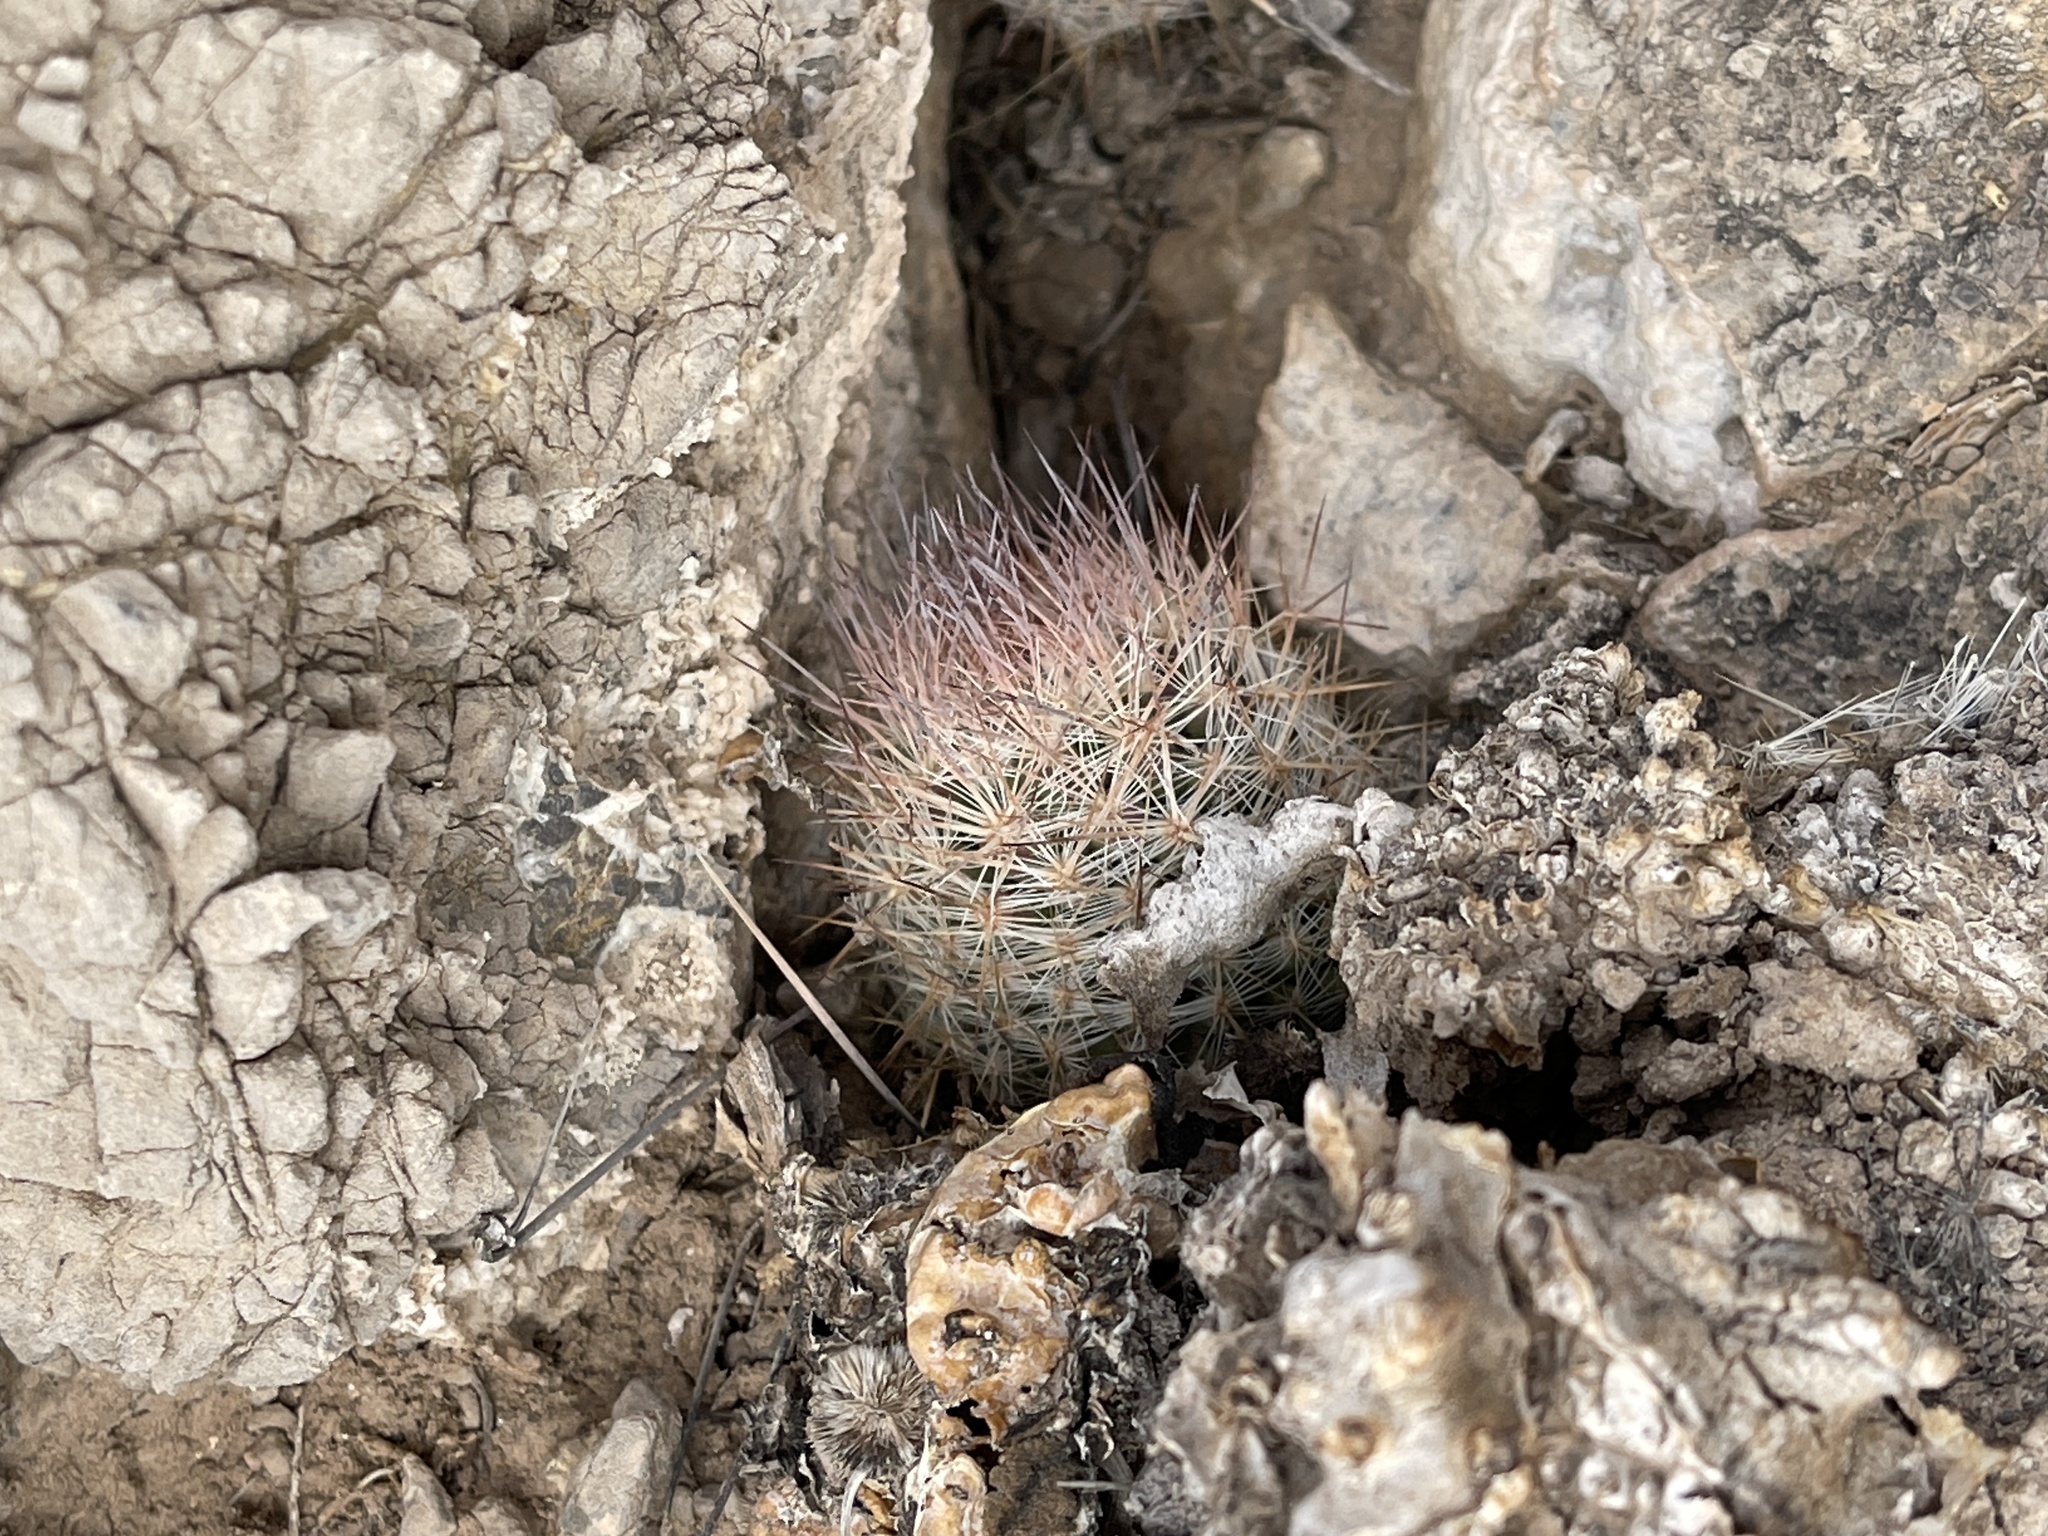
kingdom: Plantae
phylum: Tracheophyta
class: Magnoliopsida
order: Caryophyllales
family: Cactaceae
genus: Pelecyphora
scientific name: Pelecyphora tuberculosa
